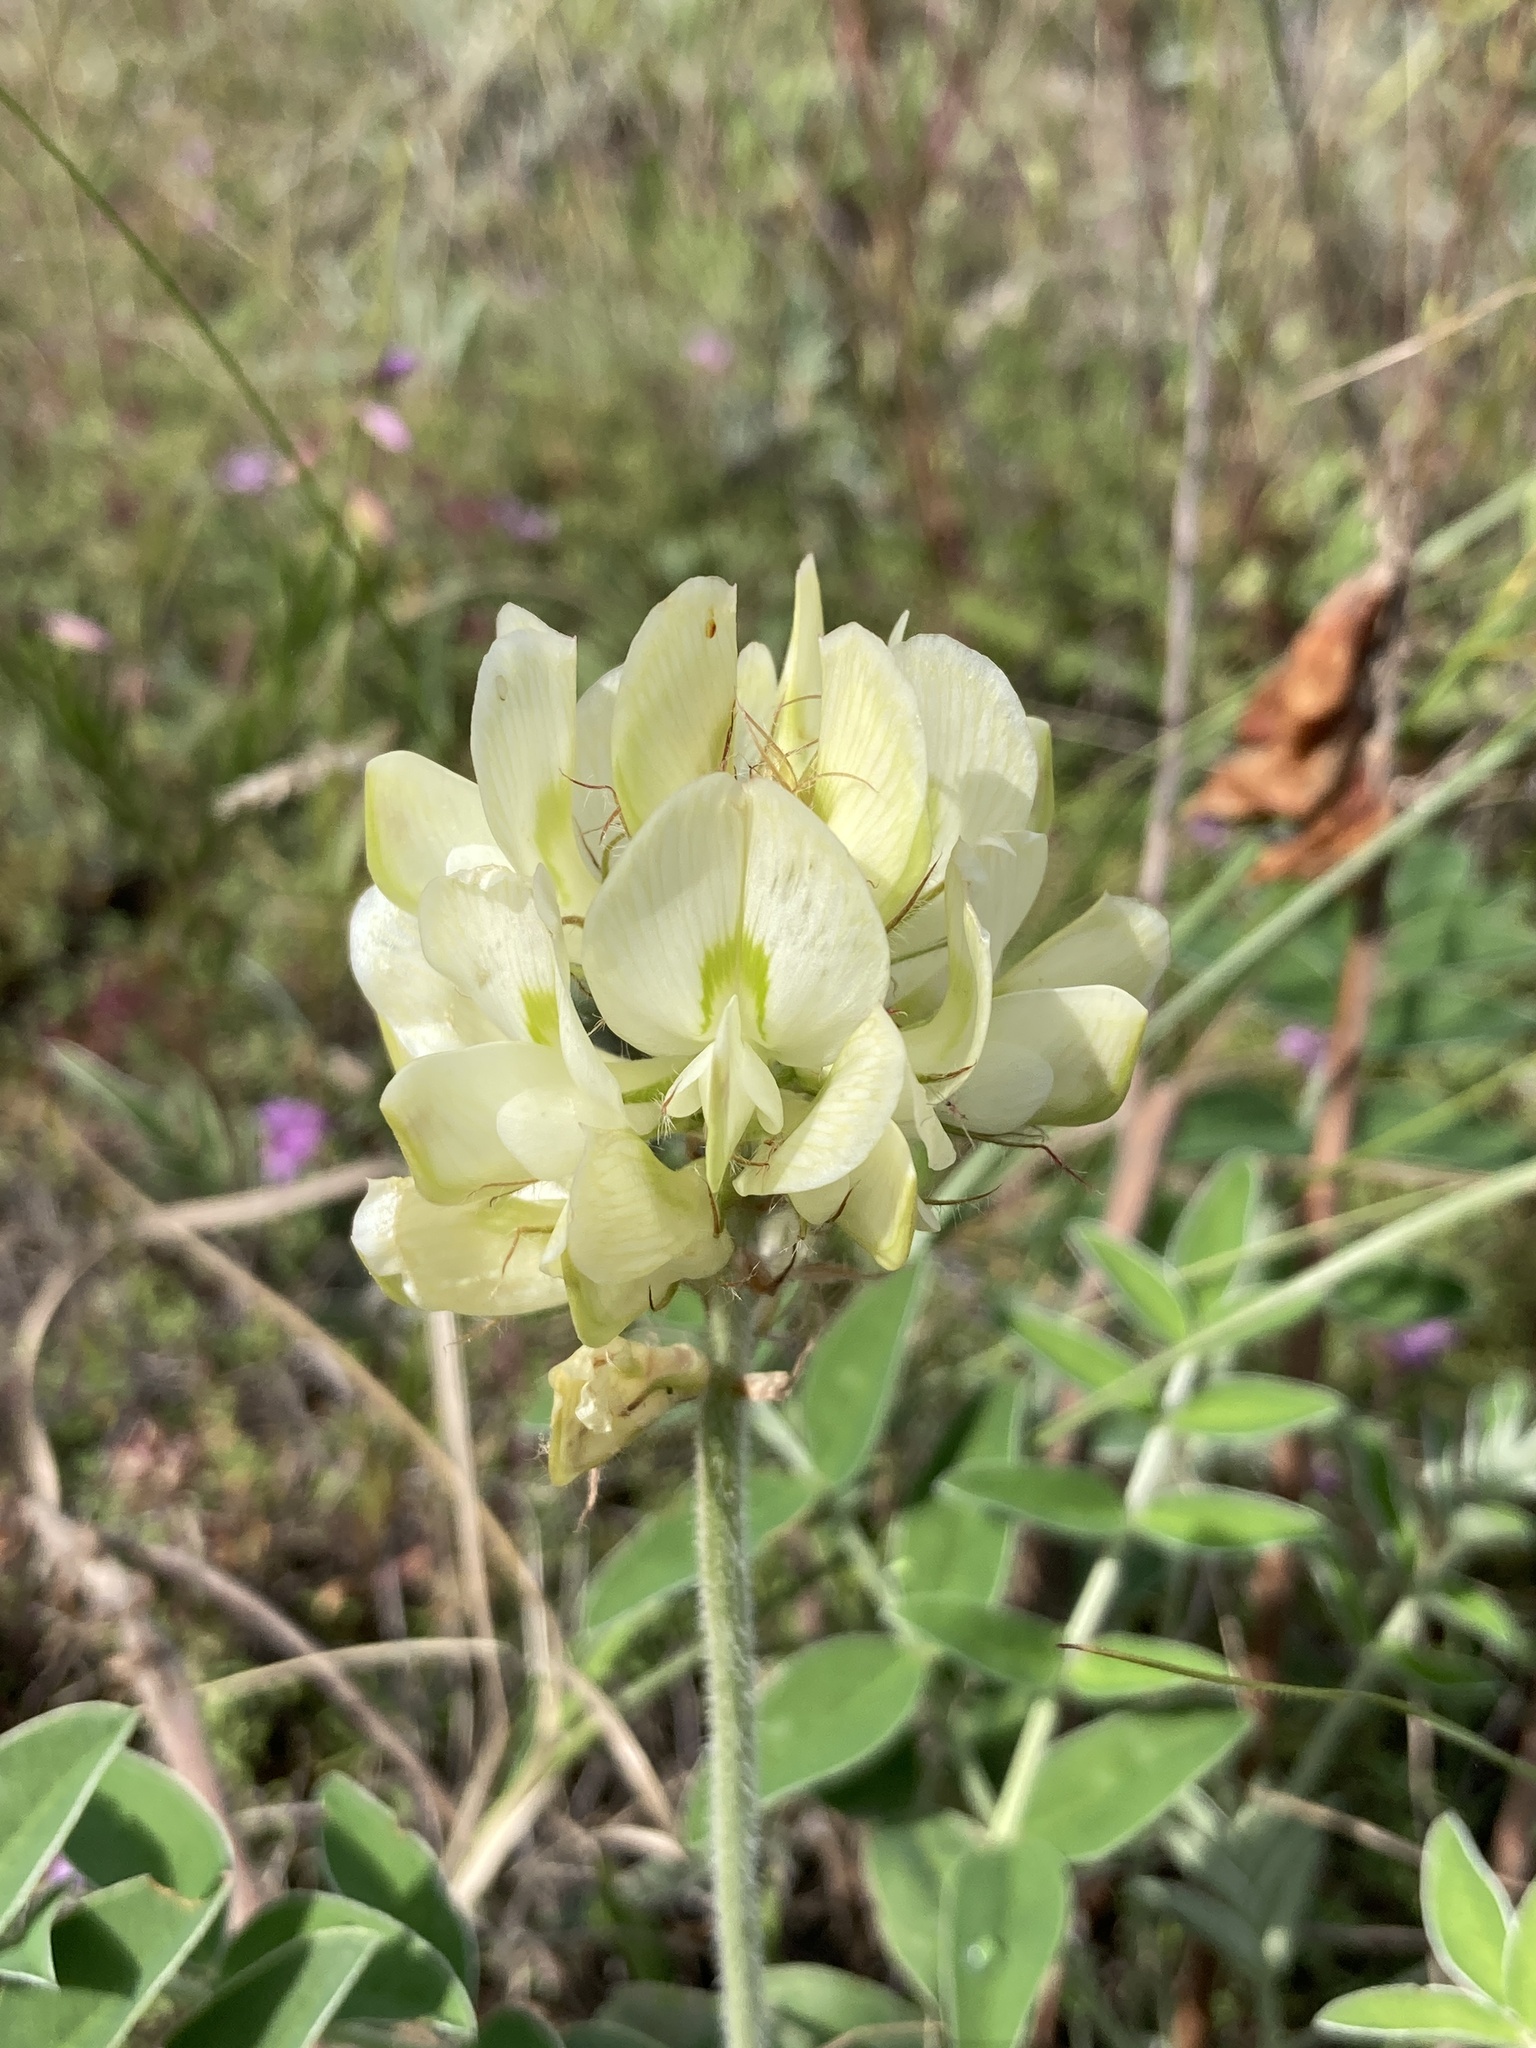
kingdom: Plantae
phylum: Tracheophyta
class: Magnoliopsida
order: Fabales
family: Fabaceae
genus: Hedysarum
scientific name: Hedysarum grandiflorum
